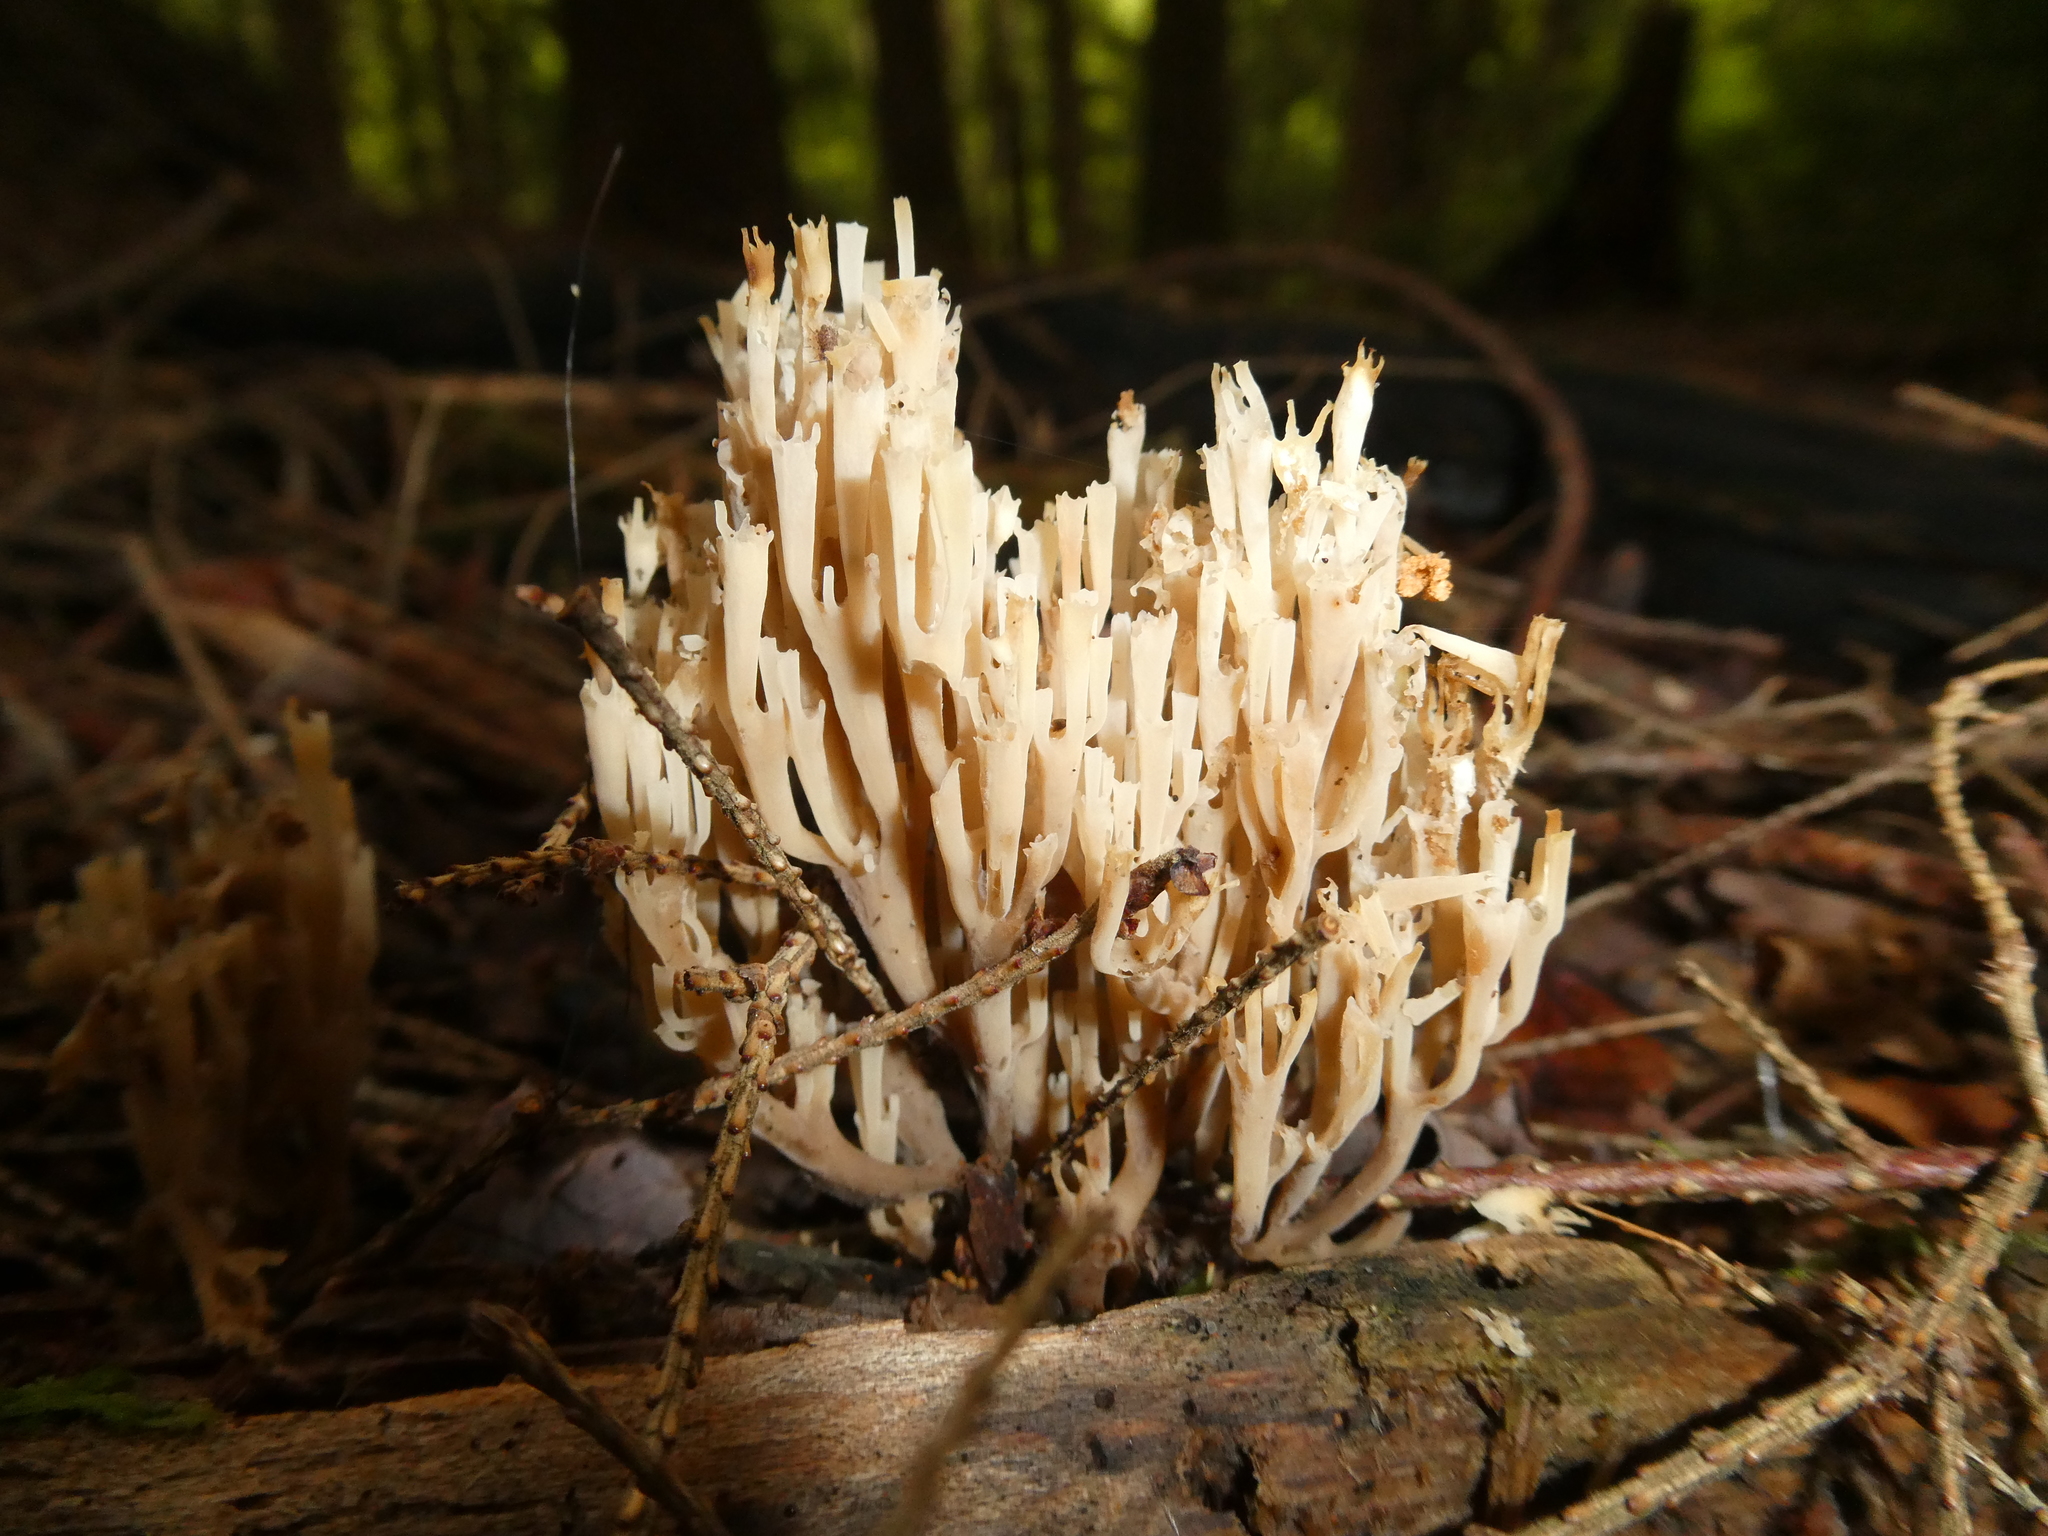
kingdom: Fungi
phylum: Basidiomycota
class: Agaricomycetes
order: Russulales
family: Auriscalpiaceae
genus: Artomyces
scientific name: Artomyces pyxidatus
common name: Crown-tipped coral fungus
